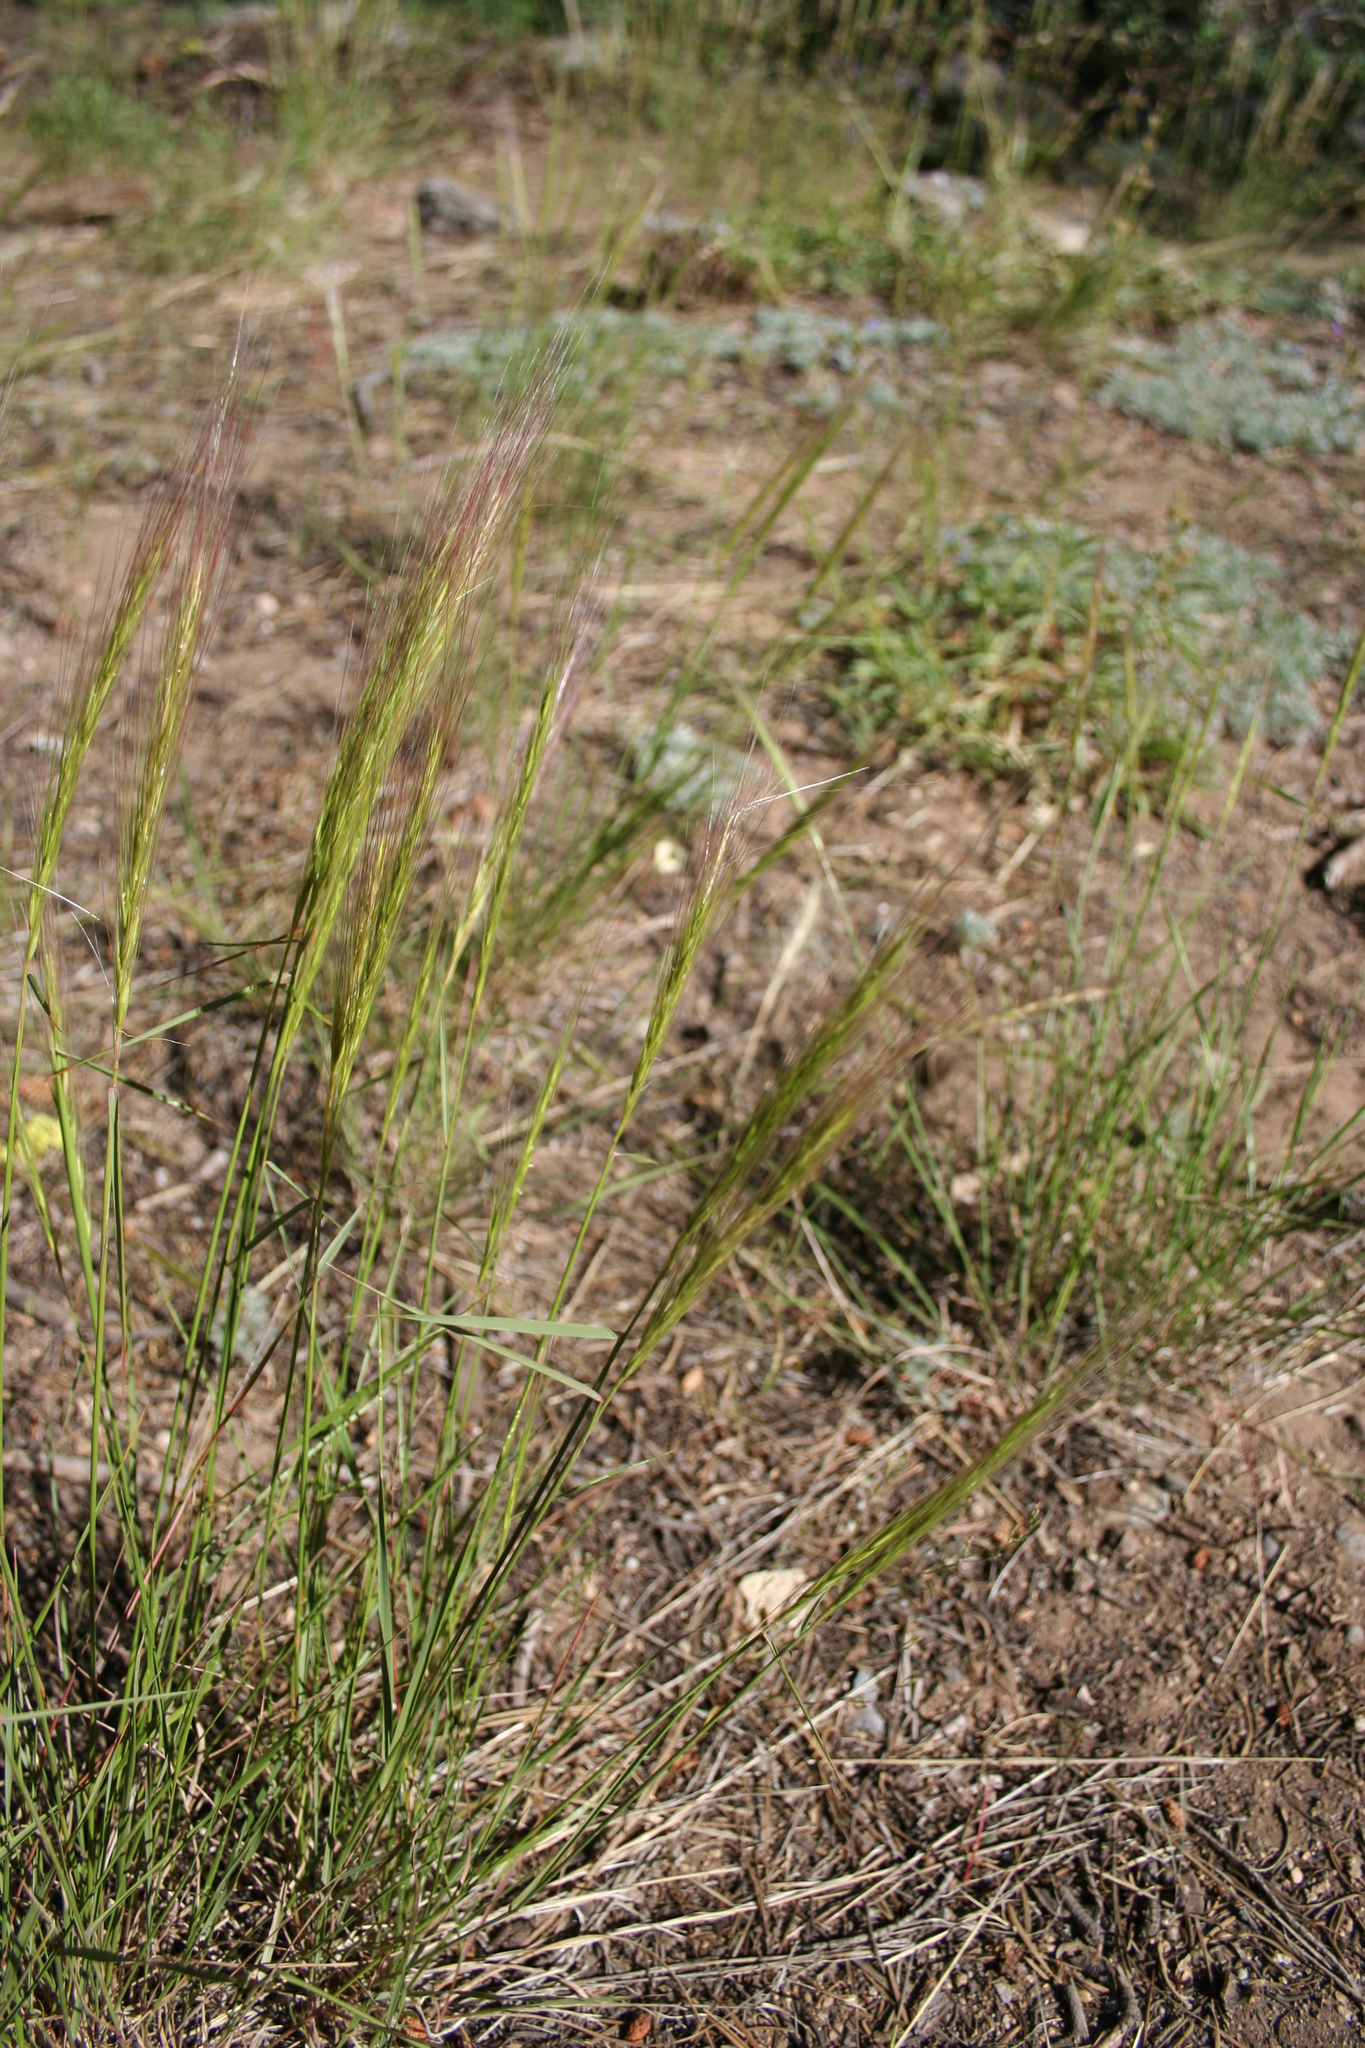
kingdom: Plantae
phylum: Tracheophyta
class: Liliopsida
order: Poales
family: Poaceae
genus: Elymus
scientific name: Elymus elymoides
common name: Bottlebrush squirreltail
